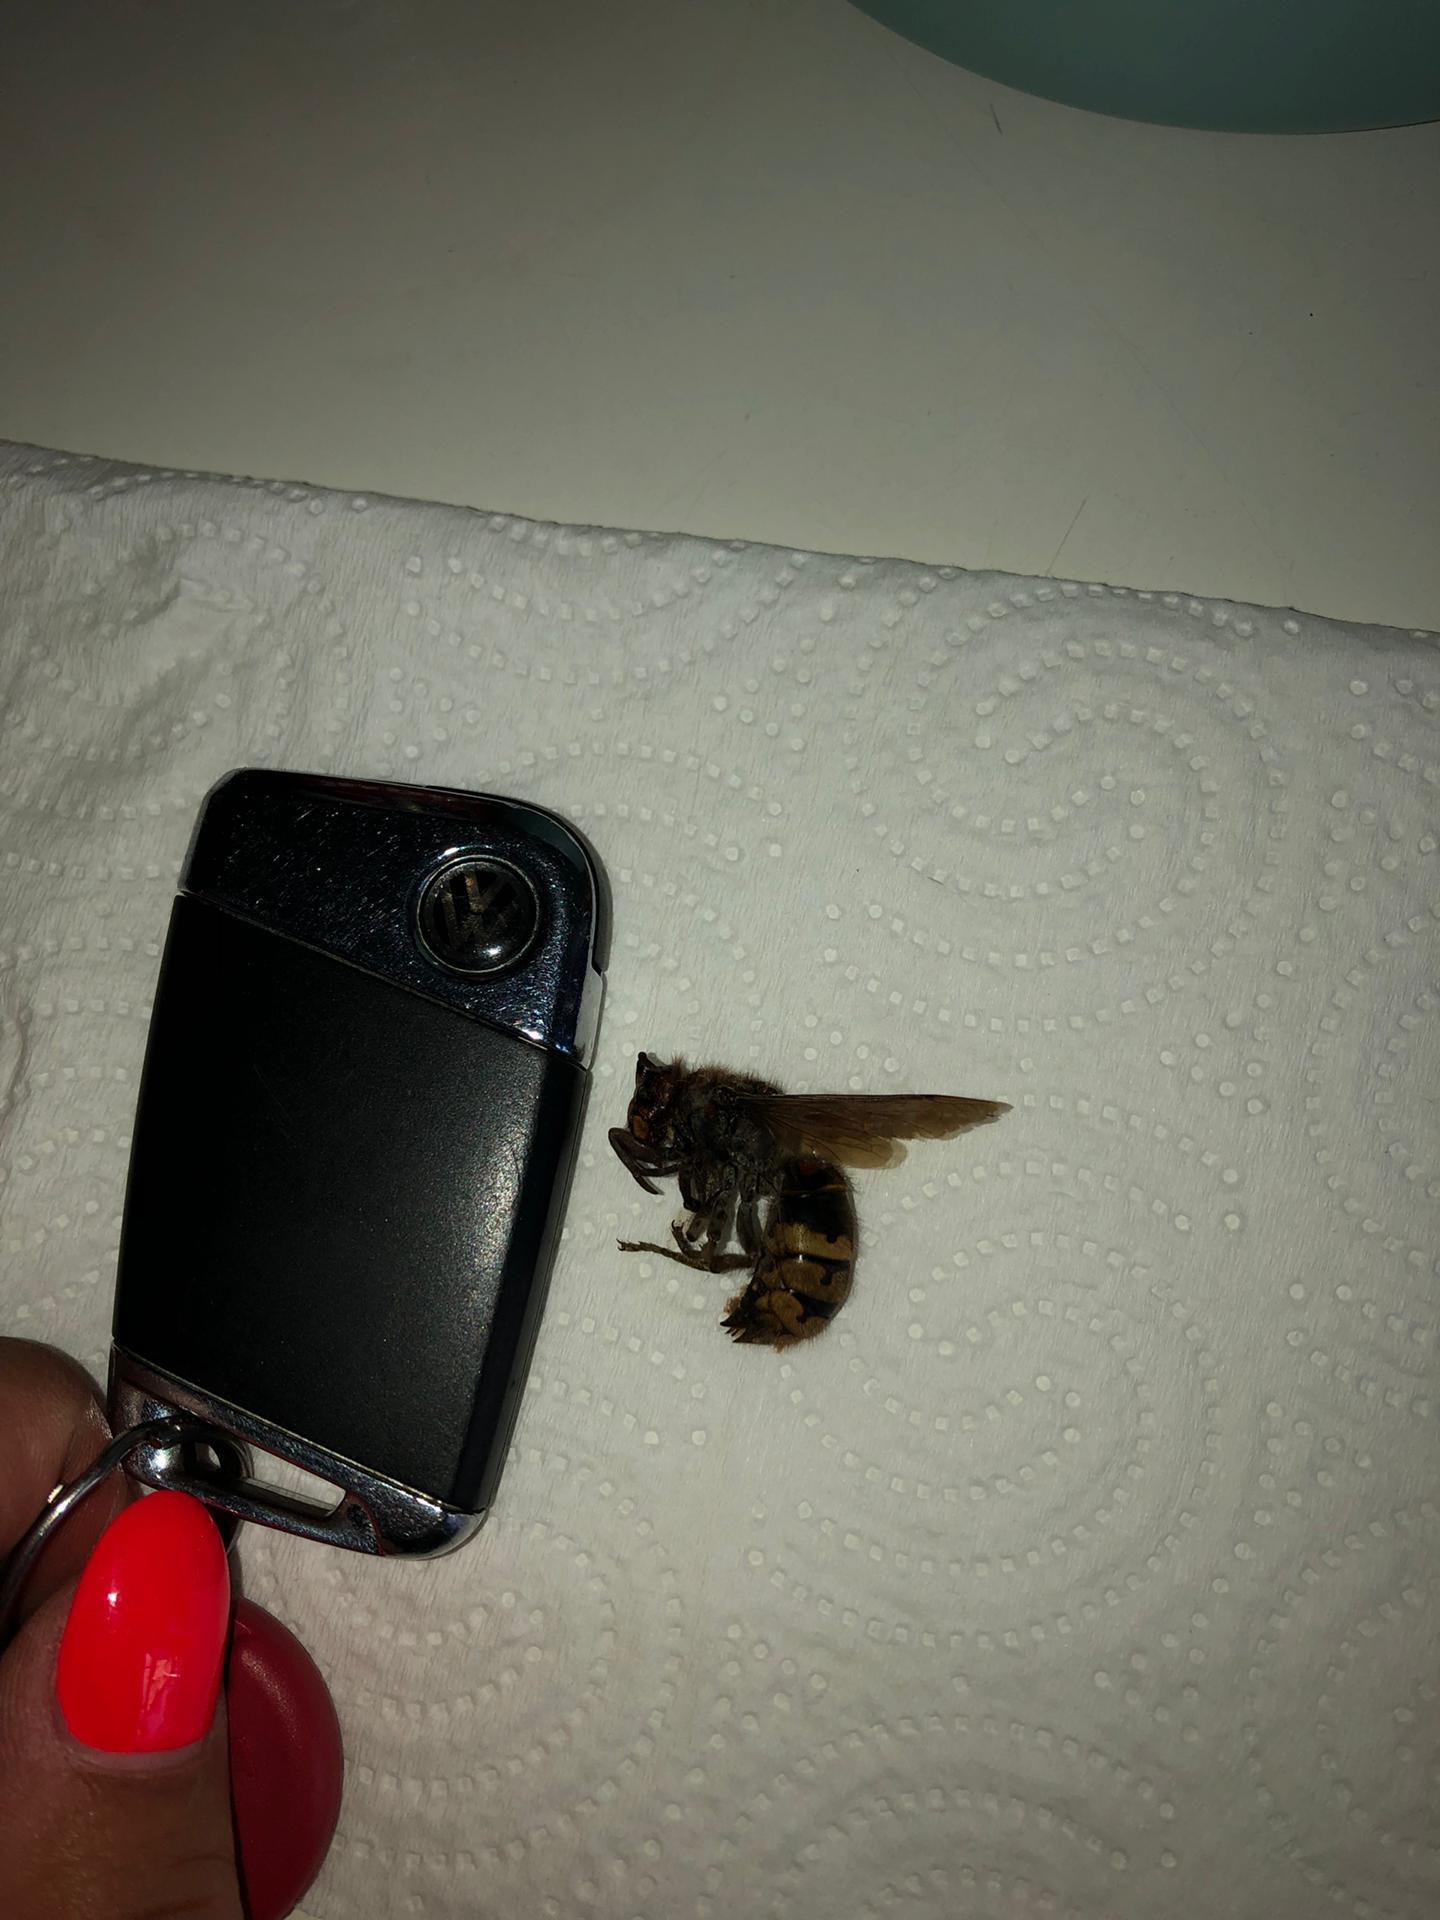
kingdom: Animalia
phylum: Arthropoda
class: Insecta
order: Hymenoptera
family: Vespidae
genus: Vespa
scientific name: Vespa crabro
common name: Hornet
